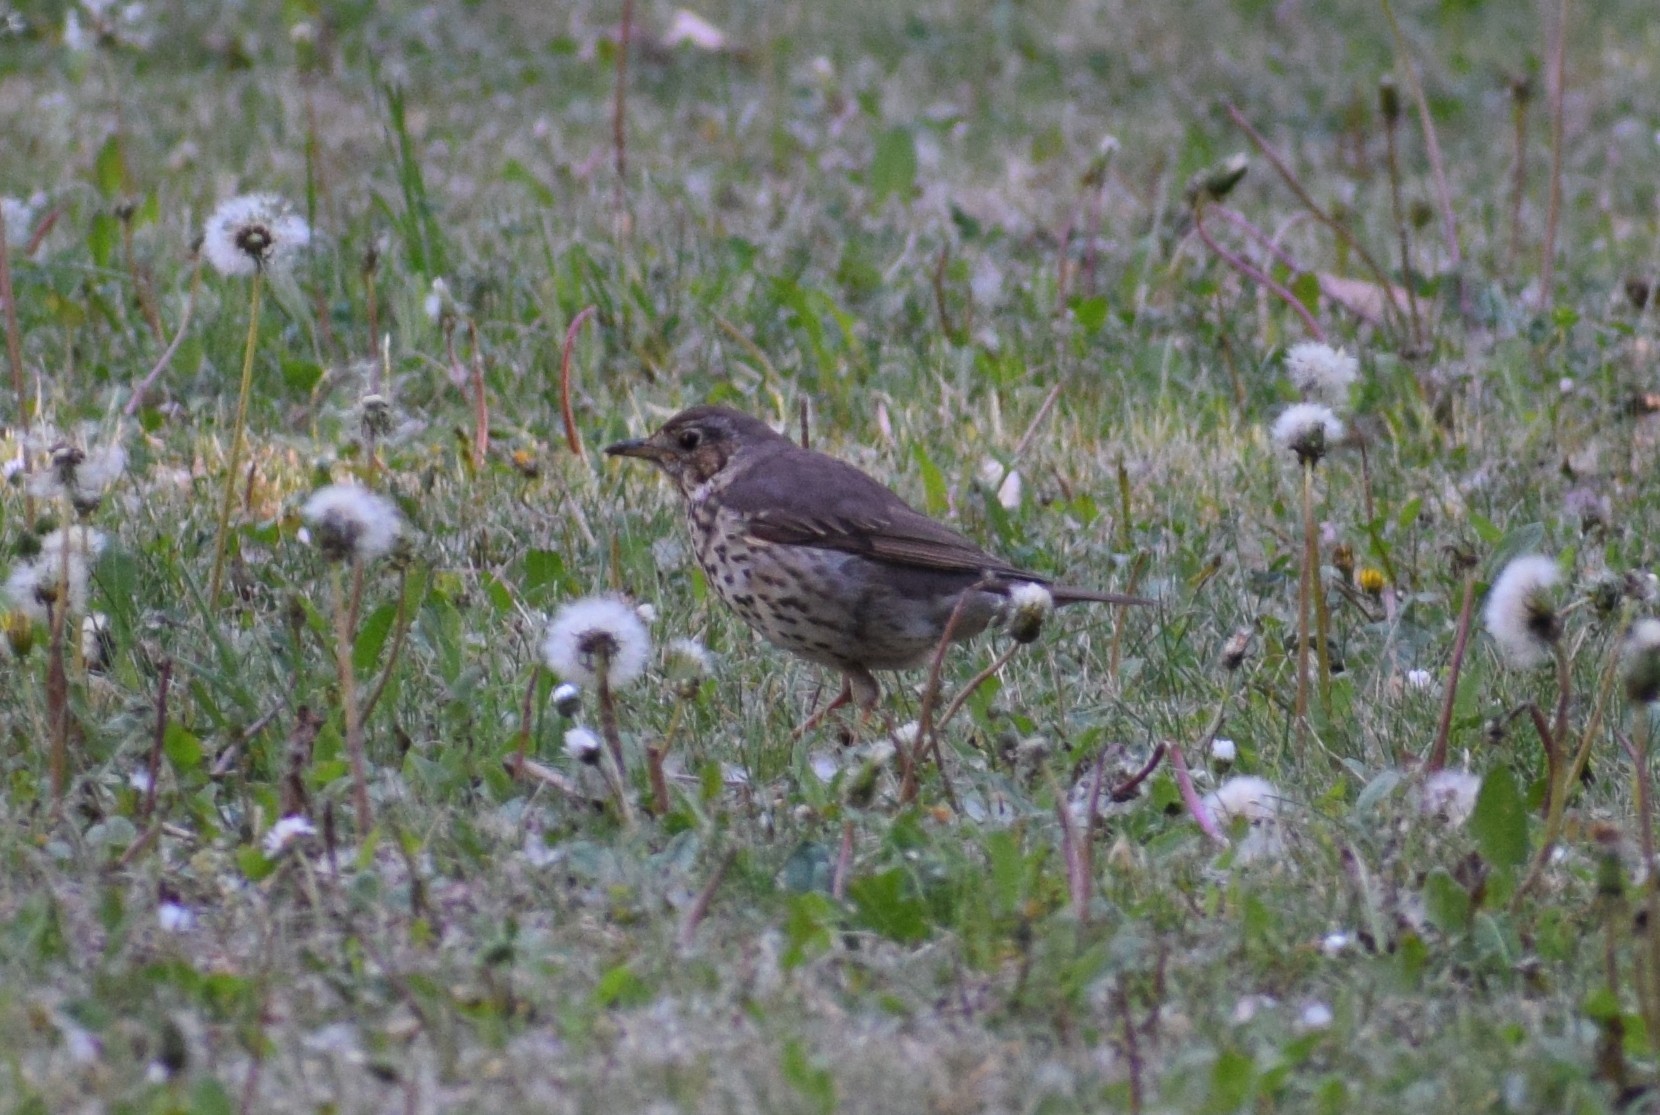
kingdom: Animalia
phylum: Chordata
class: Aves
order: Passeriformes
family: Turdidae
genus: Turdus
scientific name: Turdus philomelos
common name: Song thrush
